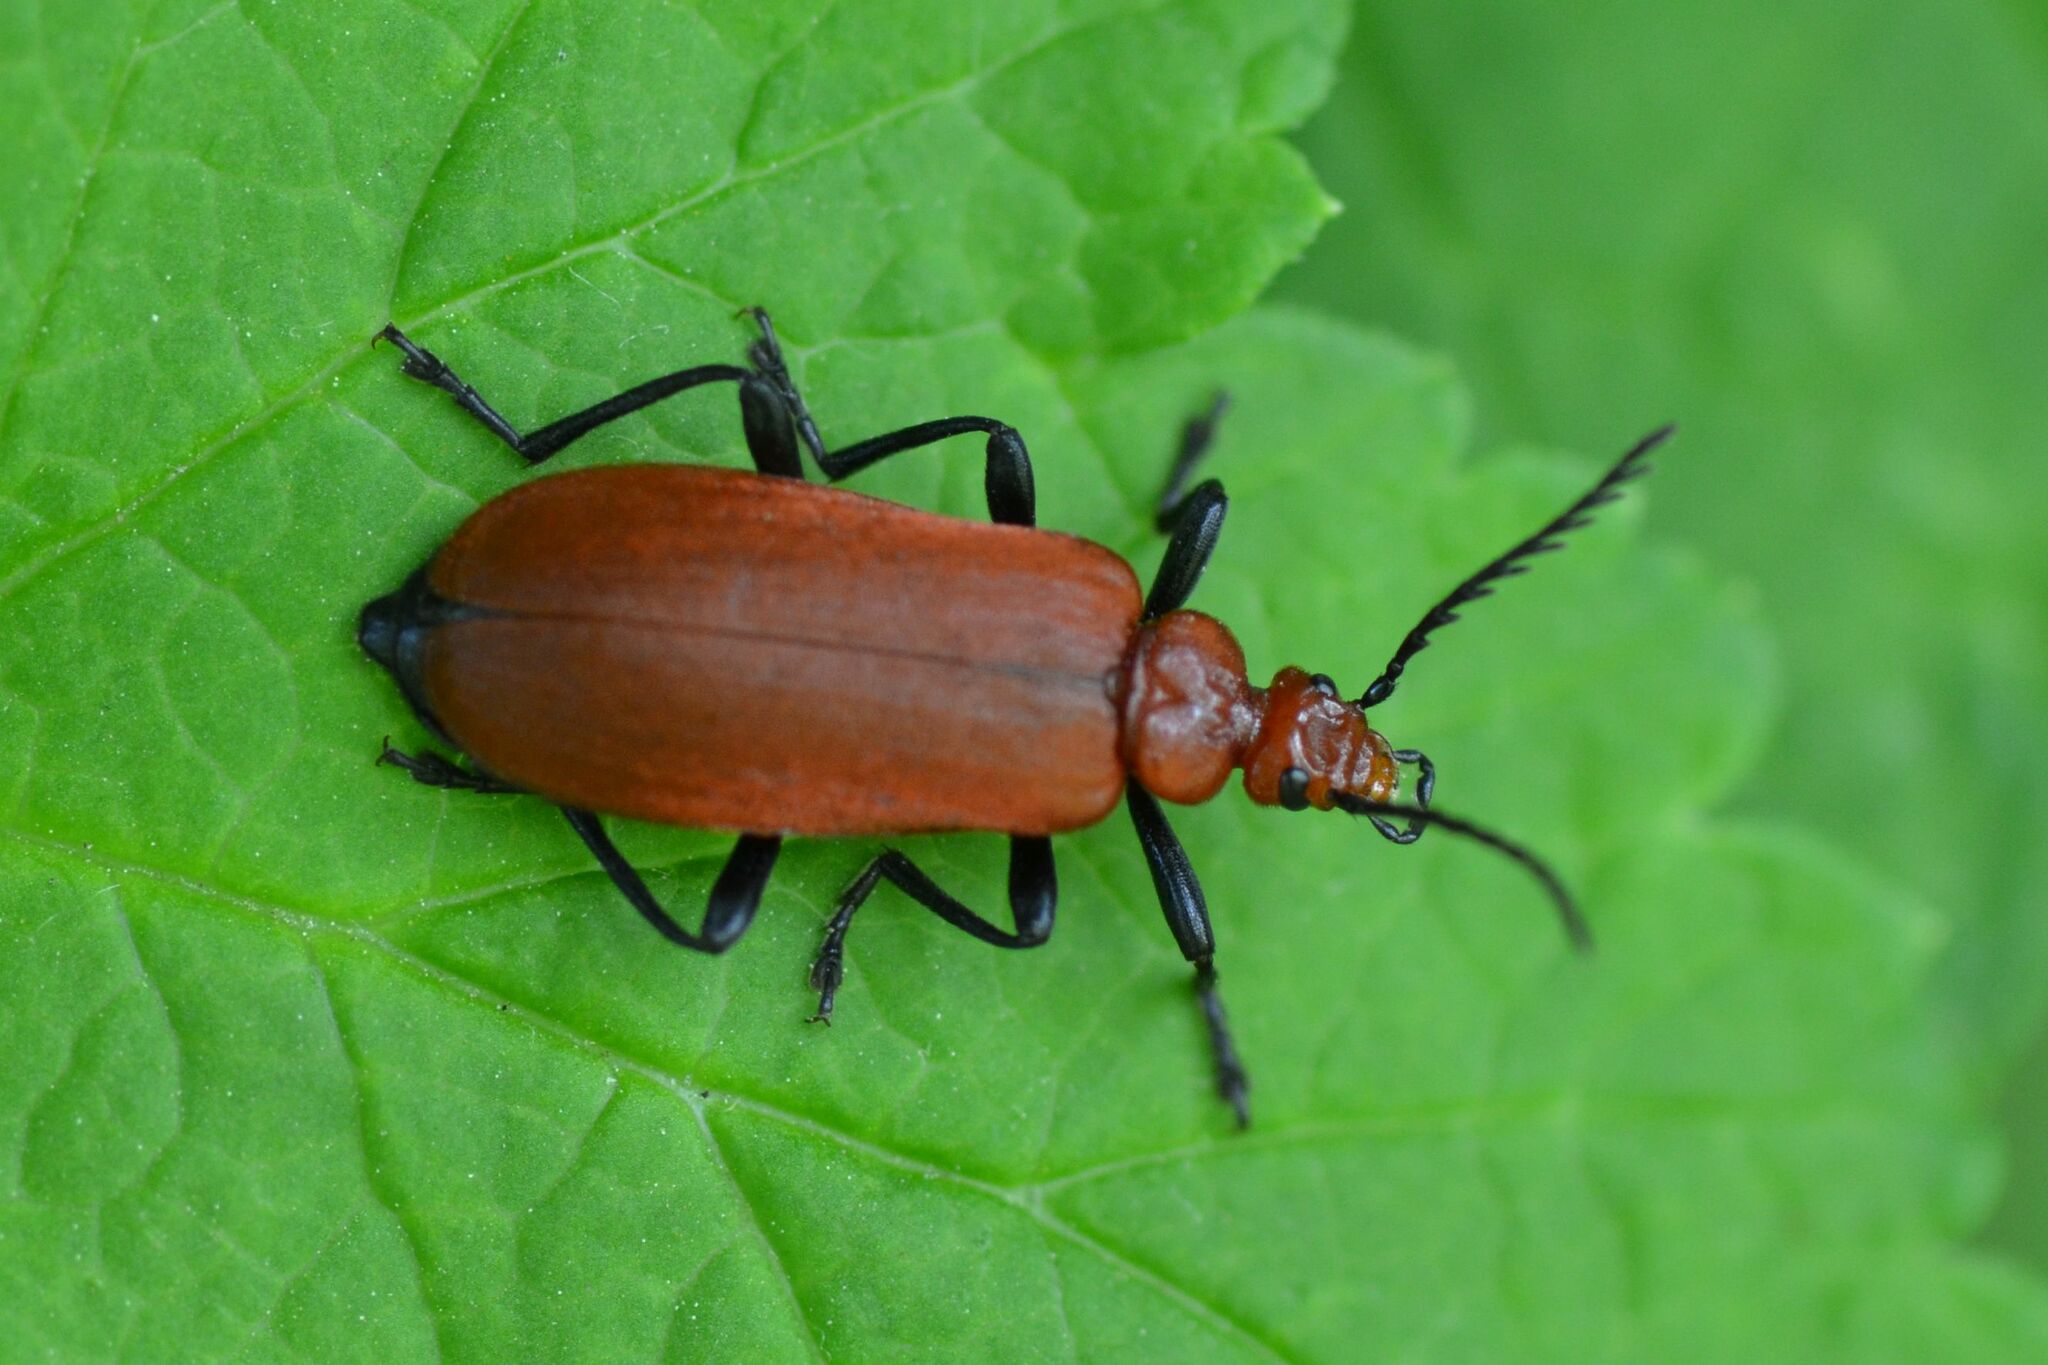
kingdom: Animalia
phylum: Arthropoda
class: Insecta
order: Coleoptera
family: Pyrochroidae
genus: Pyrochroa
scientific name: Pyrochroa serraticornis
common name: Red-headed cardinal beetle
